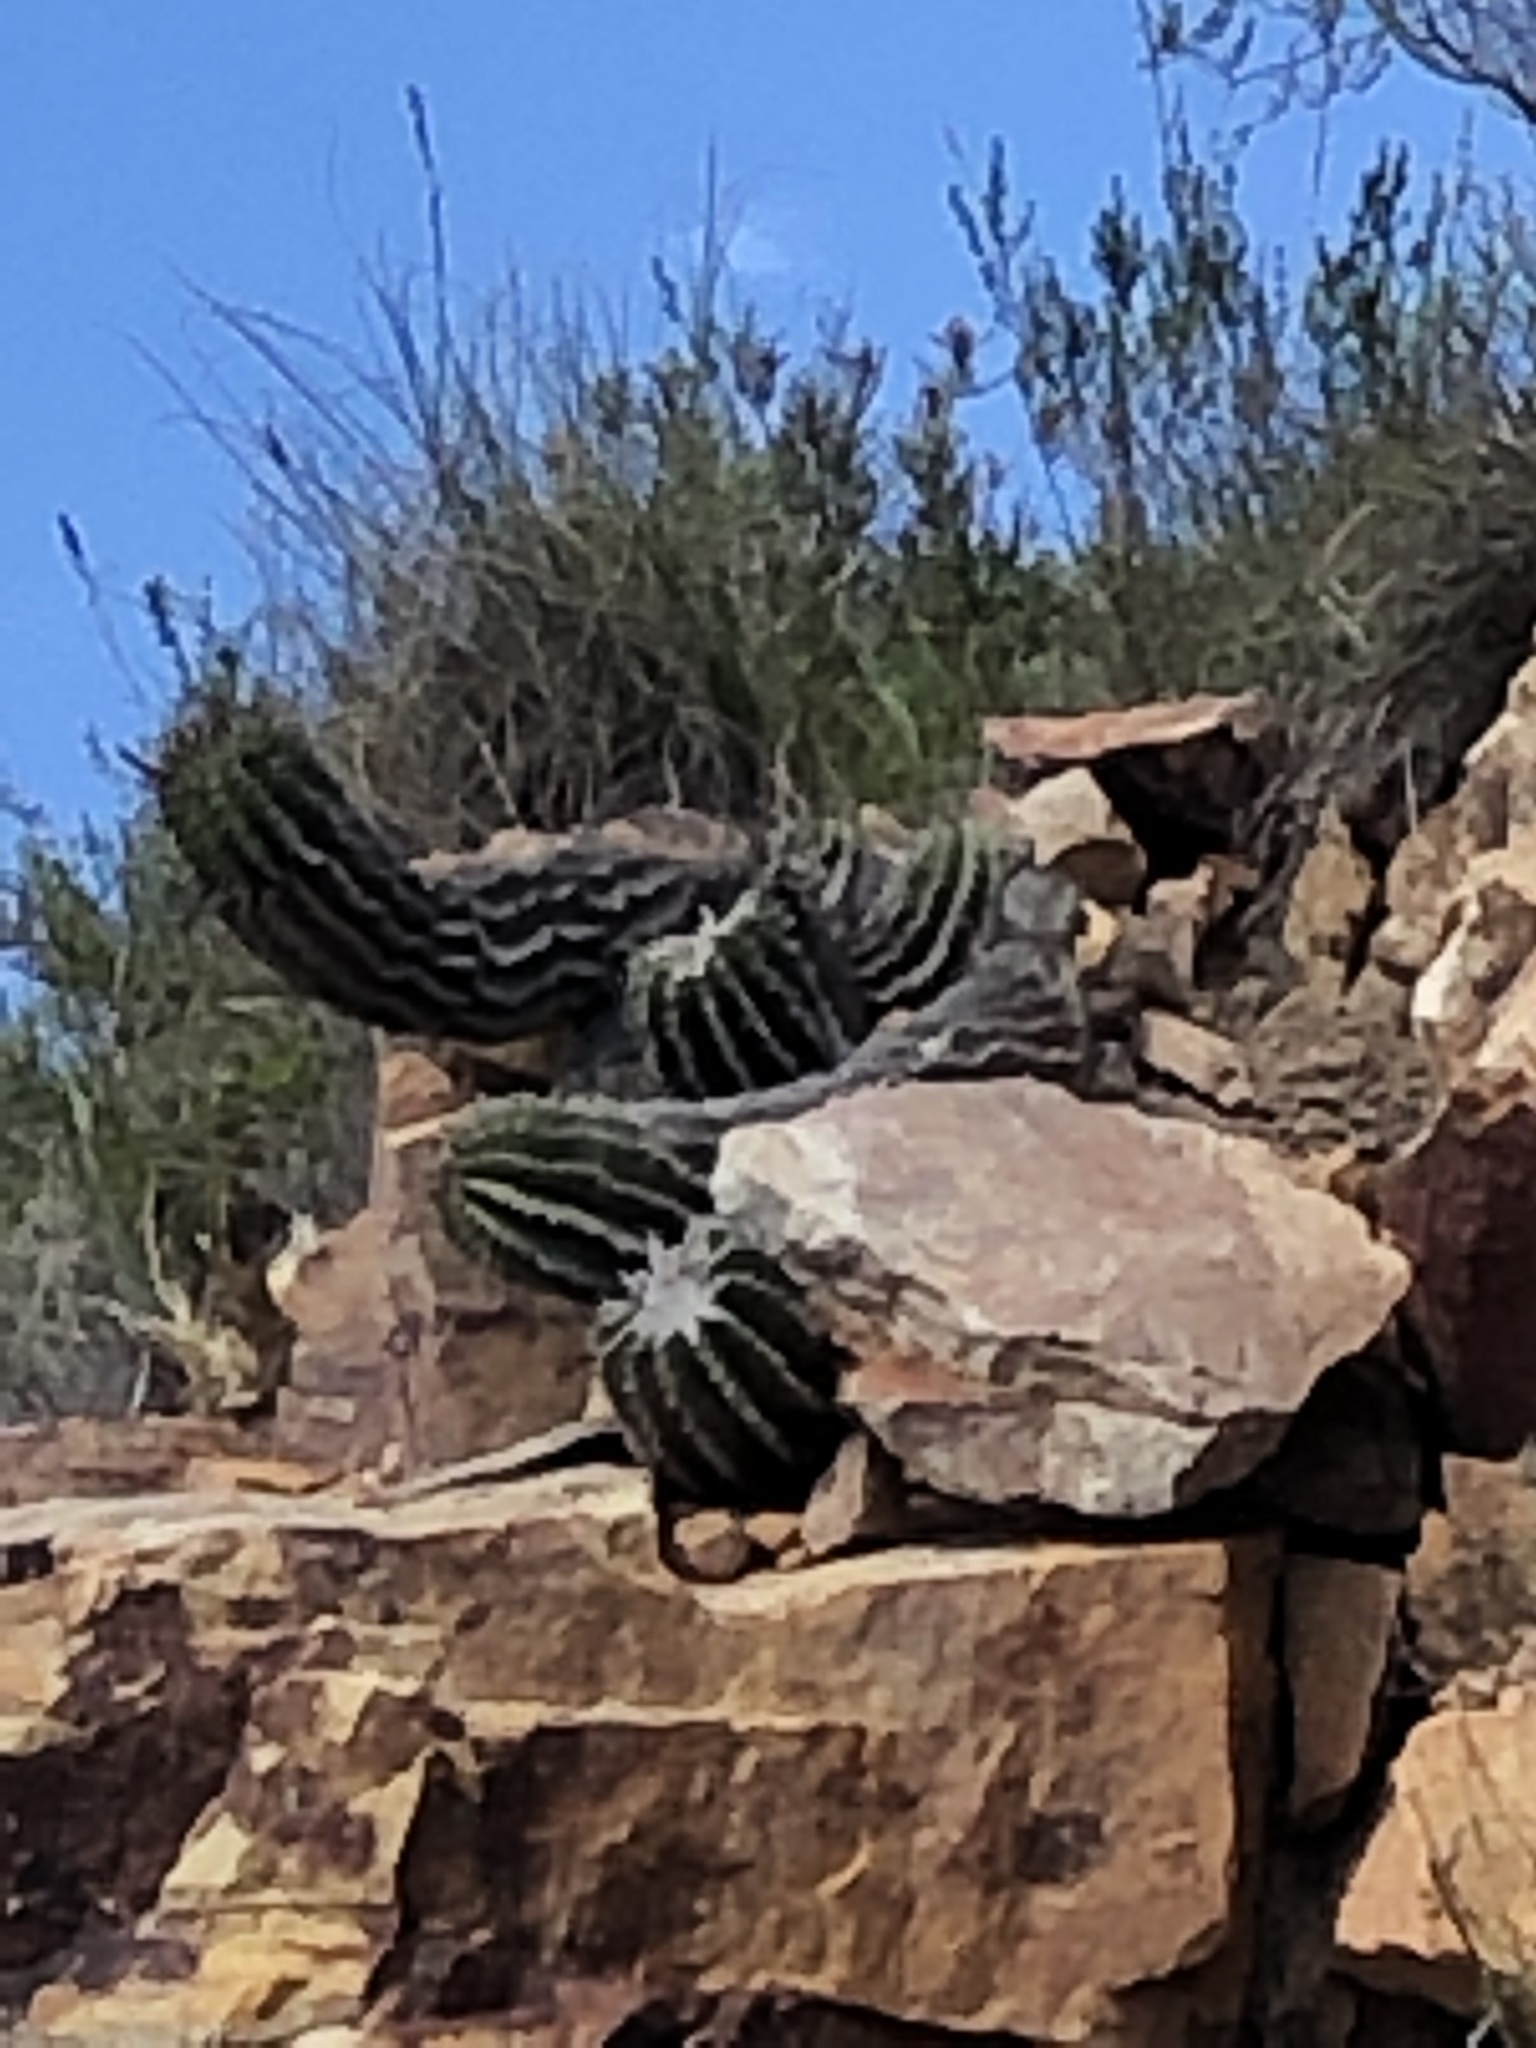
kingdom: Plantae
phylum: Tracheophyta
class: Magnoliopsida
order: Malpighiales
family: Euphorbiaceae
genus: Euphorbia
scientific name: Euphorbia polygona
